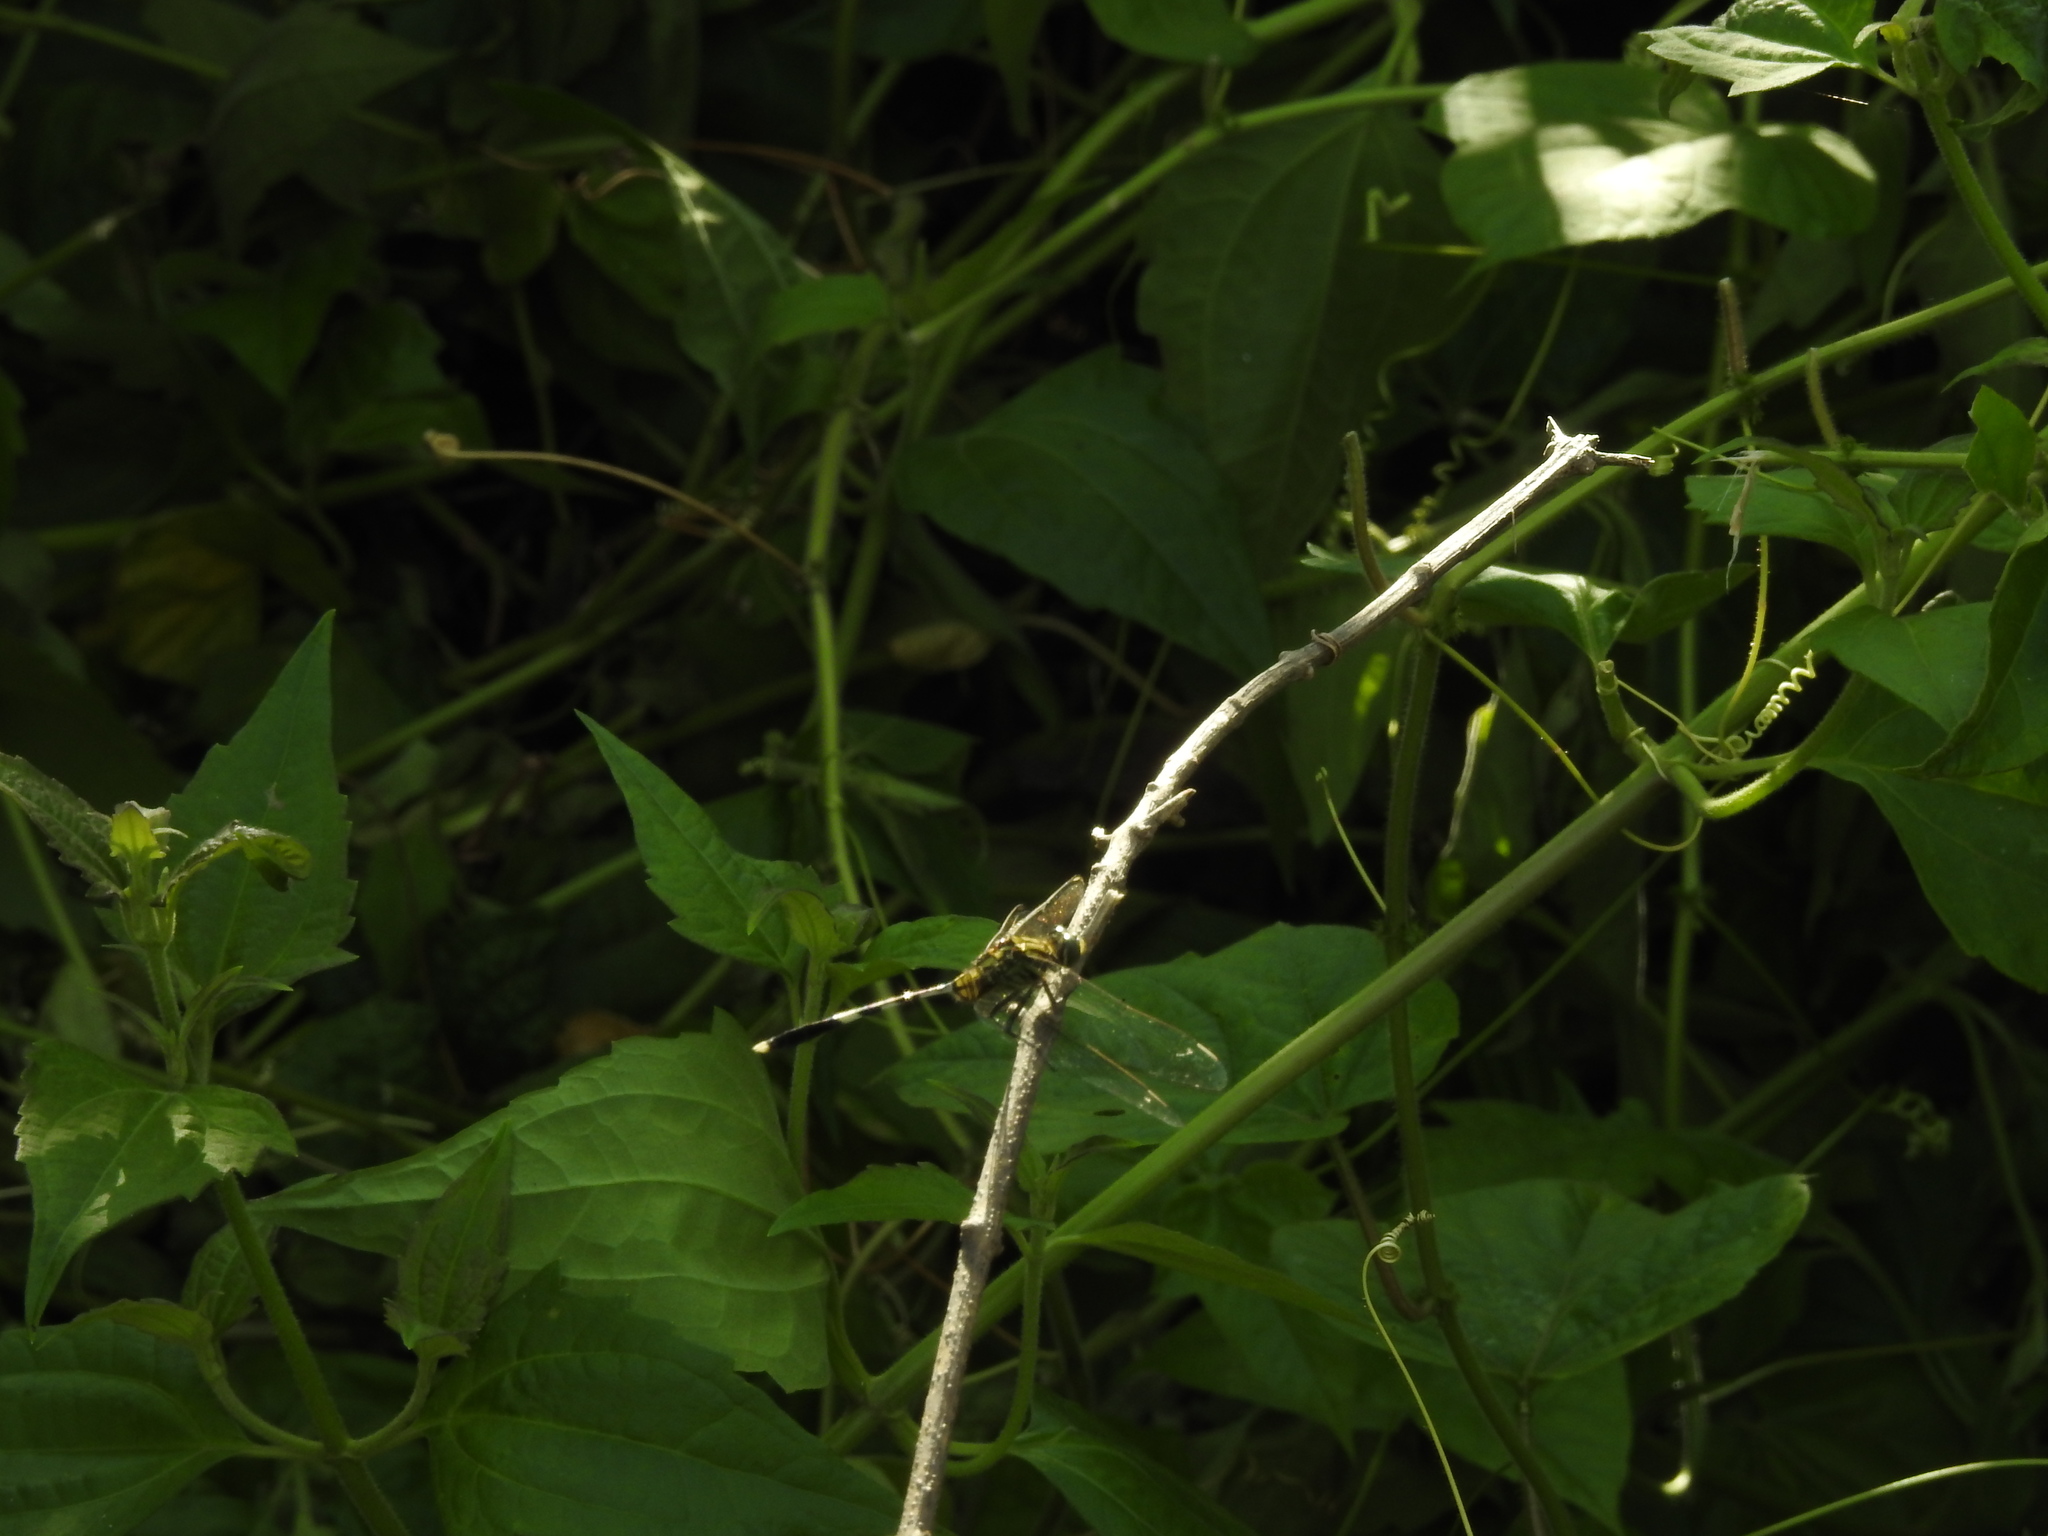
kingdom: Animalia
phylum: Arthropoda
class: Insecta
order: Odonata
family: Libellulidae
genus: Orthetrum
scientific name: Orthetrum sabina
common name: Slender skimmer
